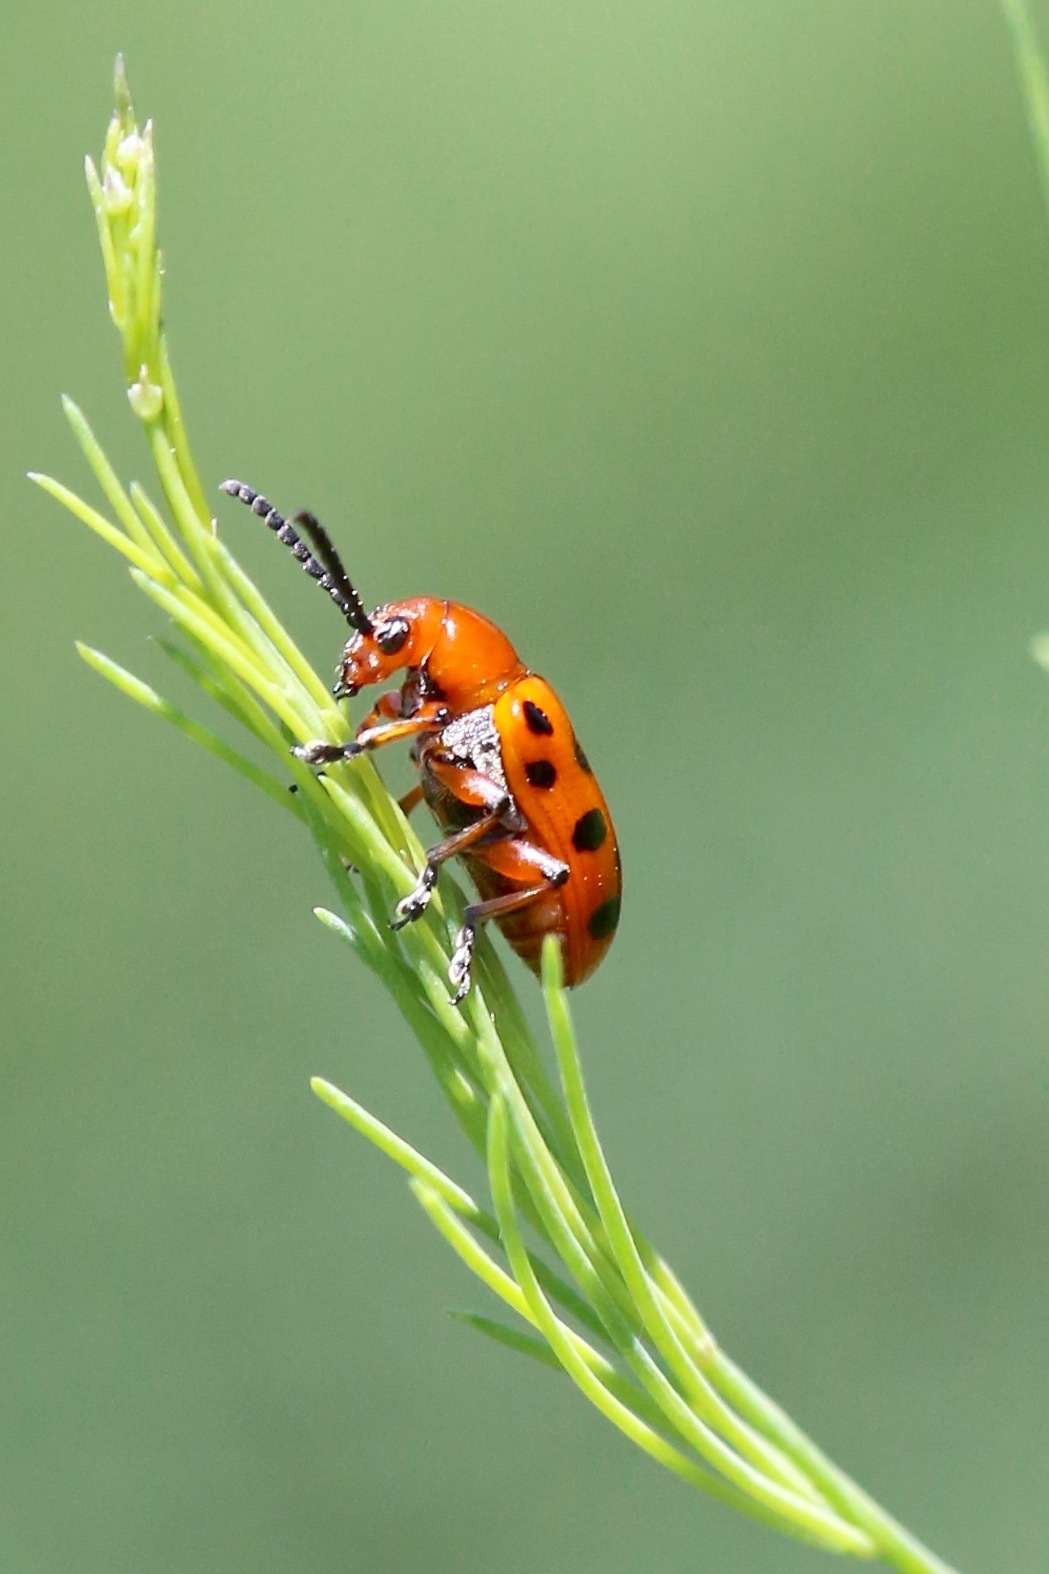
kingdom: Animalia
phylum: Arthropoda
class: Insecta
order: Coleoptera
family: Chrysomelidae
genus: Crioceris
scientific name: Crioceris duodecimpunctata
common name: Twelve-spotted asparagus beetle
